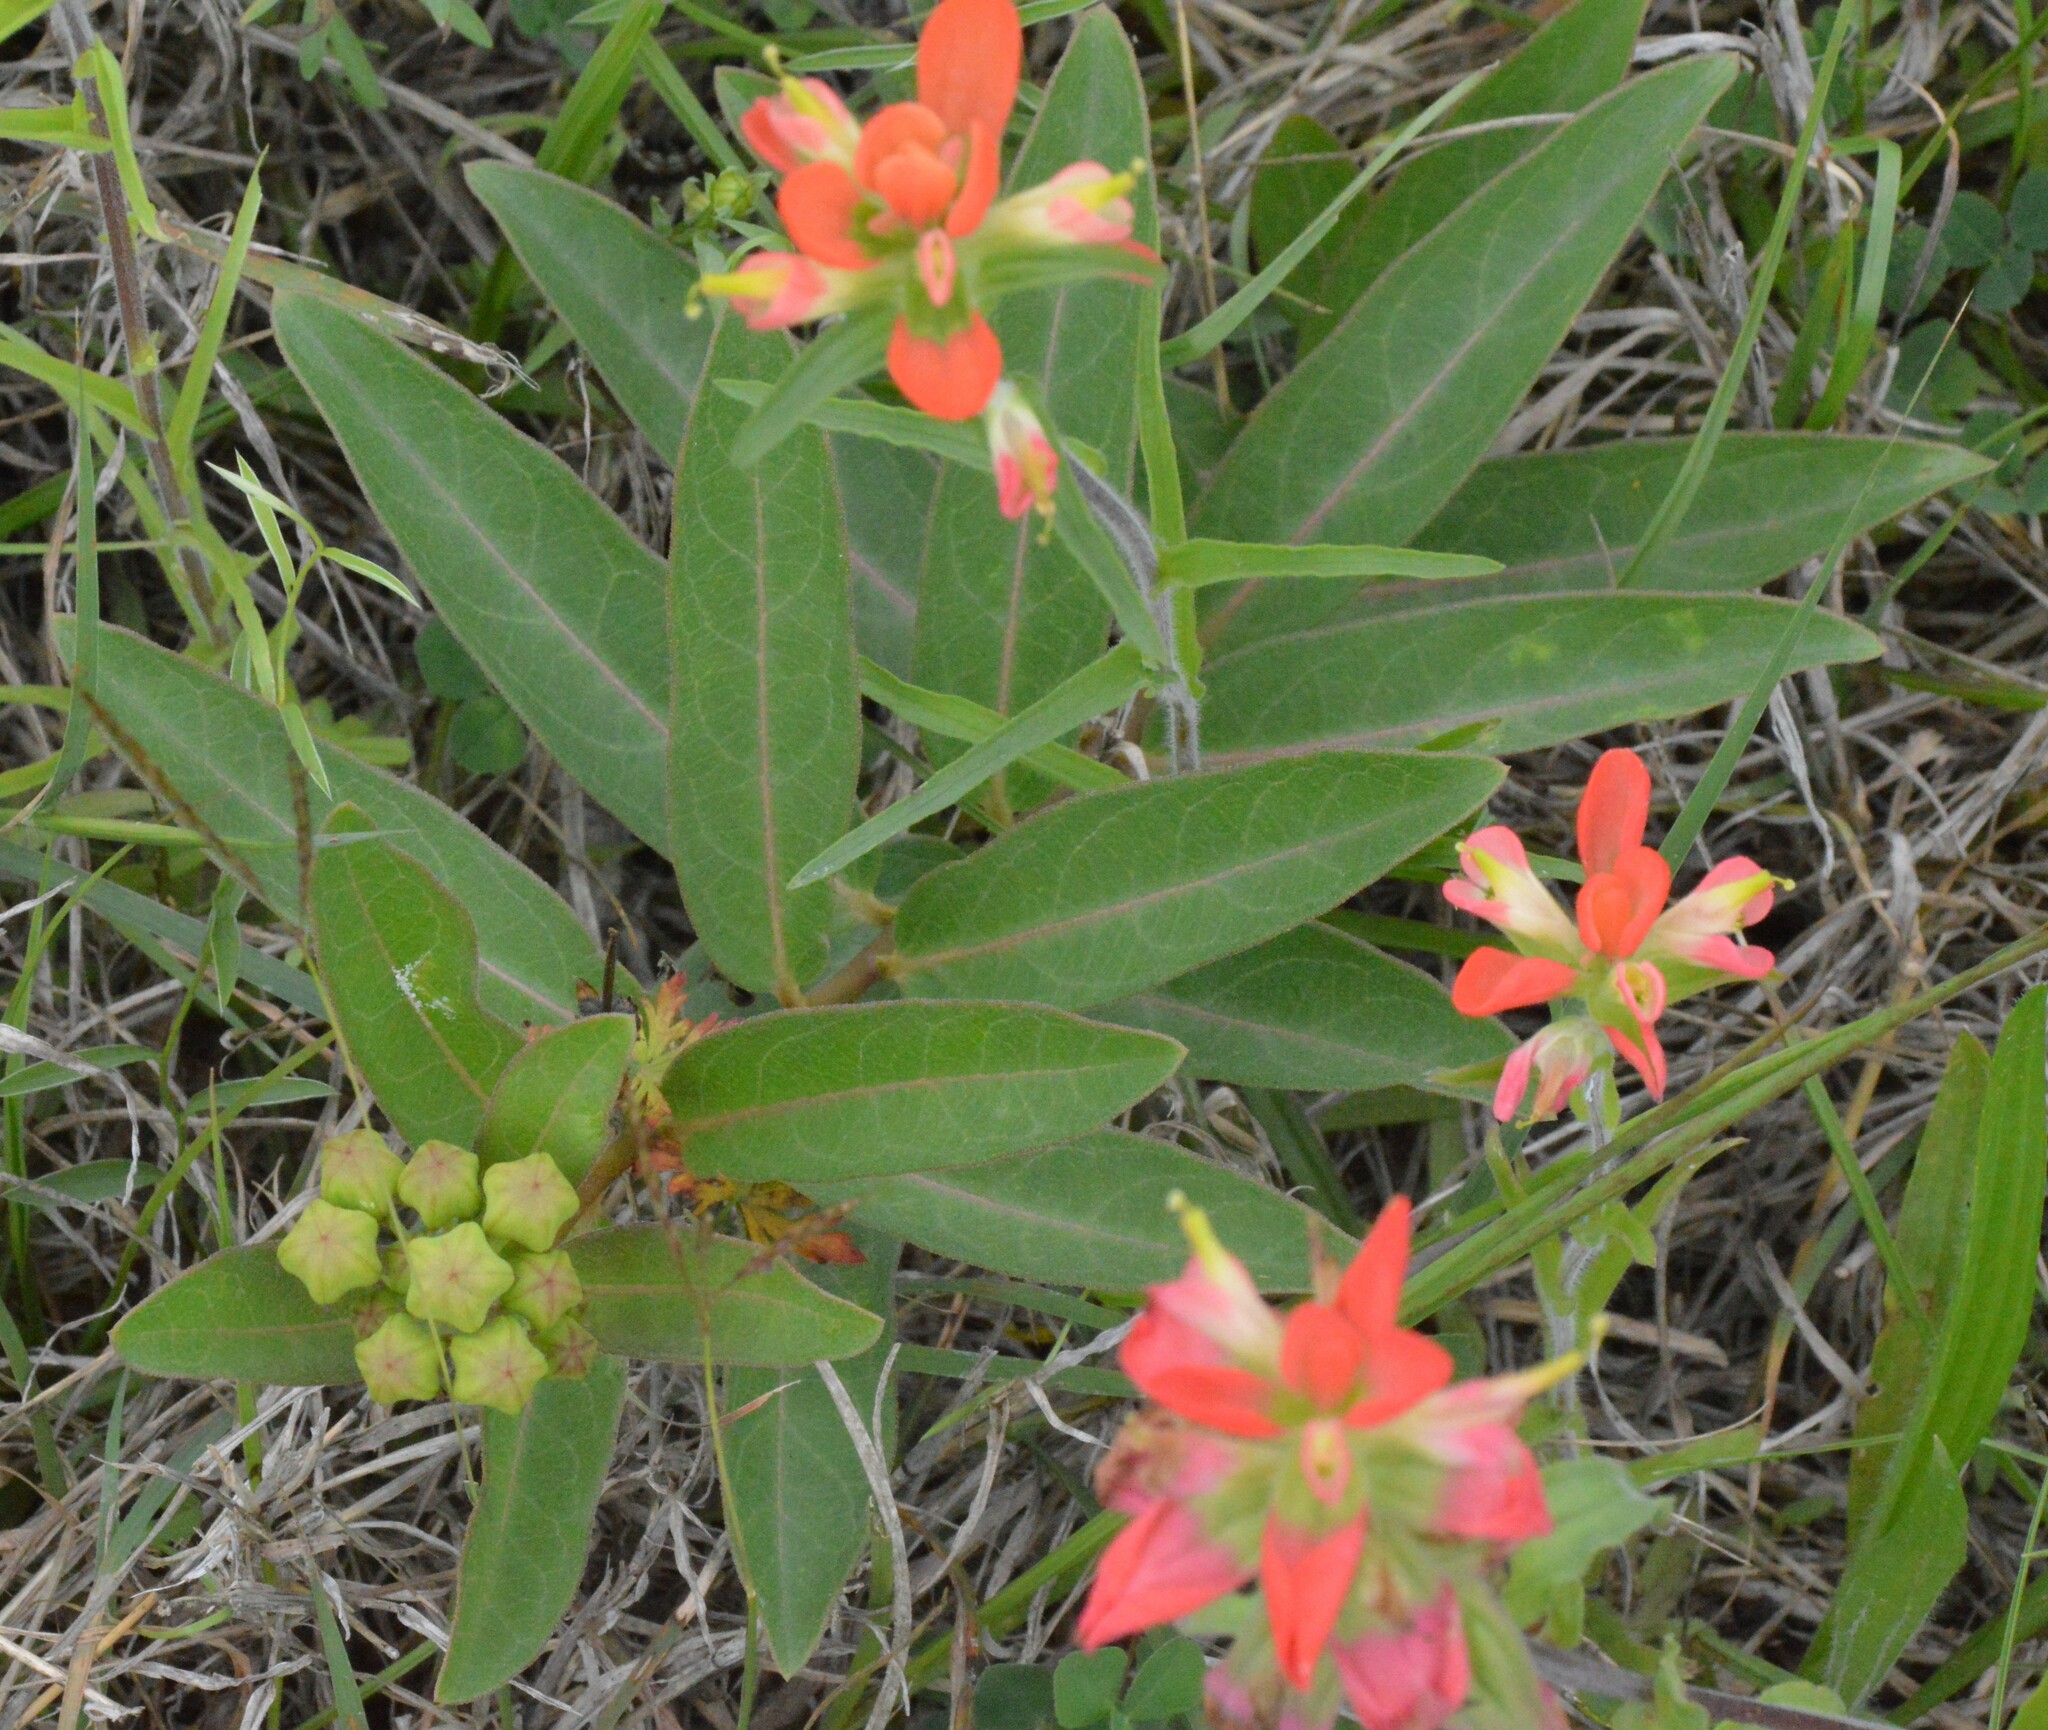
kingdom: Plantae
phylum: Tracheophyta
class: Magnoliopsida
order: Gentianales
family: Apocynaceae
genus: Asclepias
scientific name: Asclepias viridis
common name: Antelope-horns
